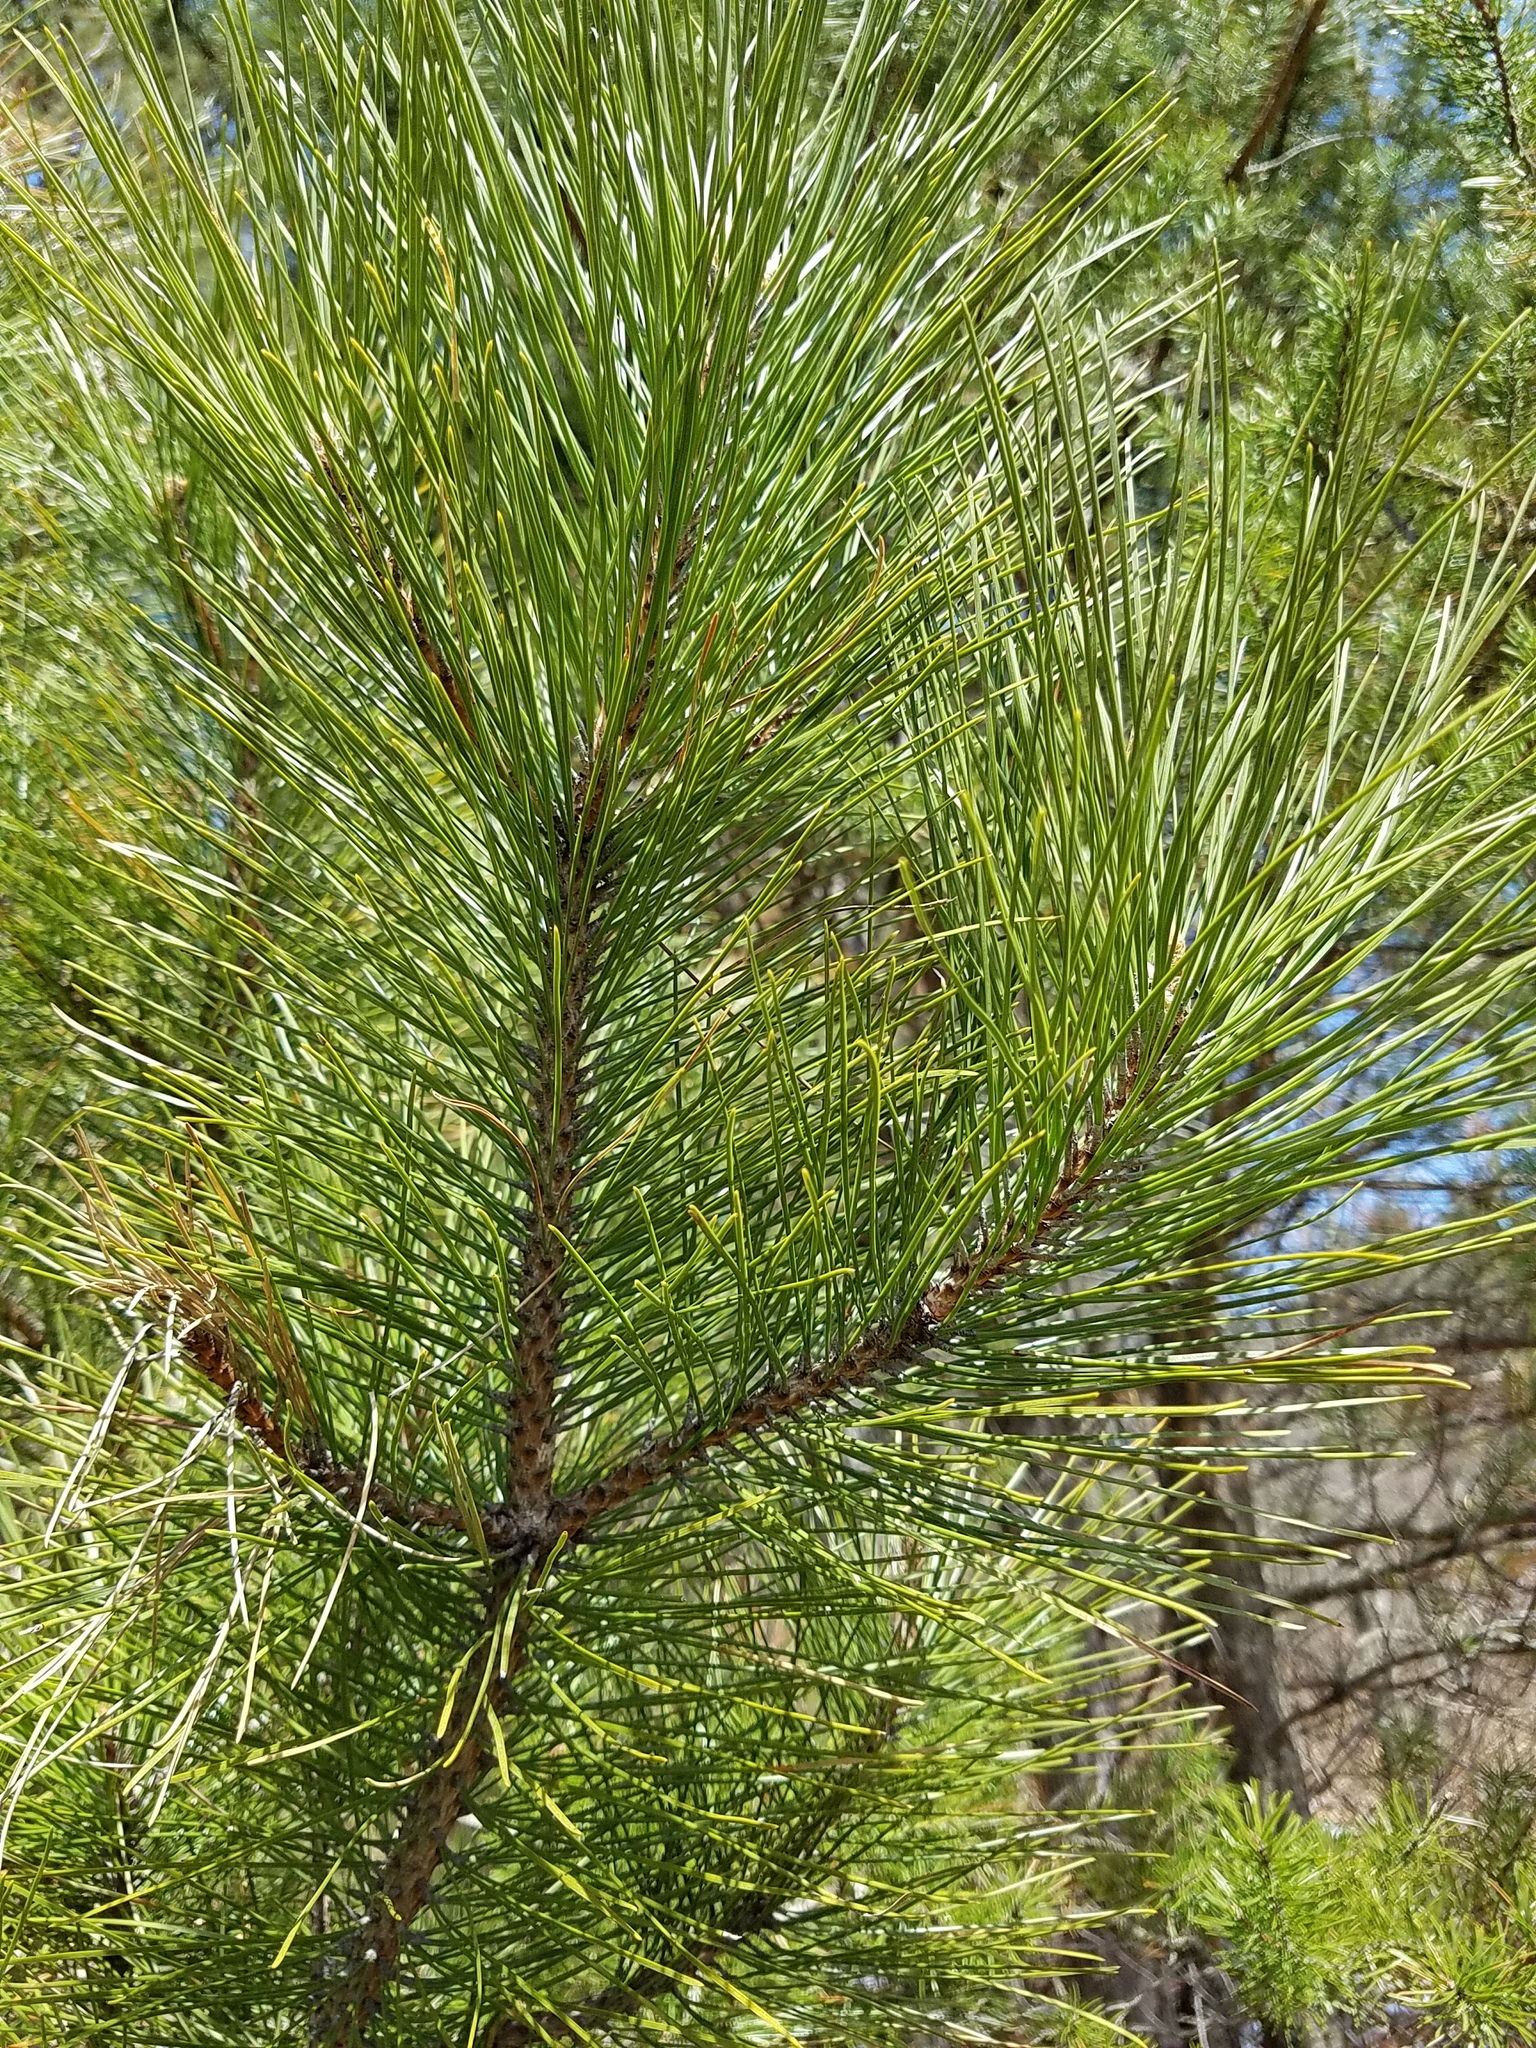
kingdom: Plantae
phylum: Tracheophyta
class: Pinopsida
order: Pinales
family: Pinaceae
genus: Pinus
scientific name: Pinus resinosa
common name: Norway pine
